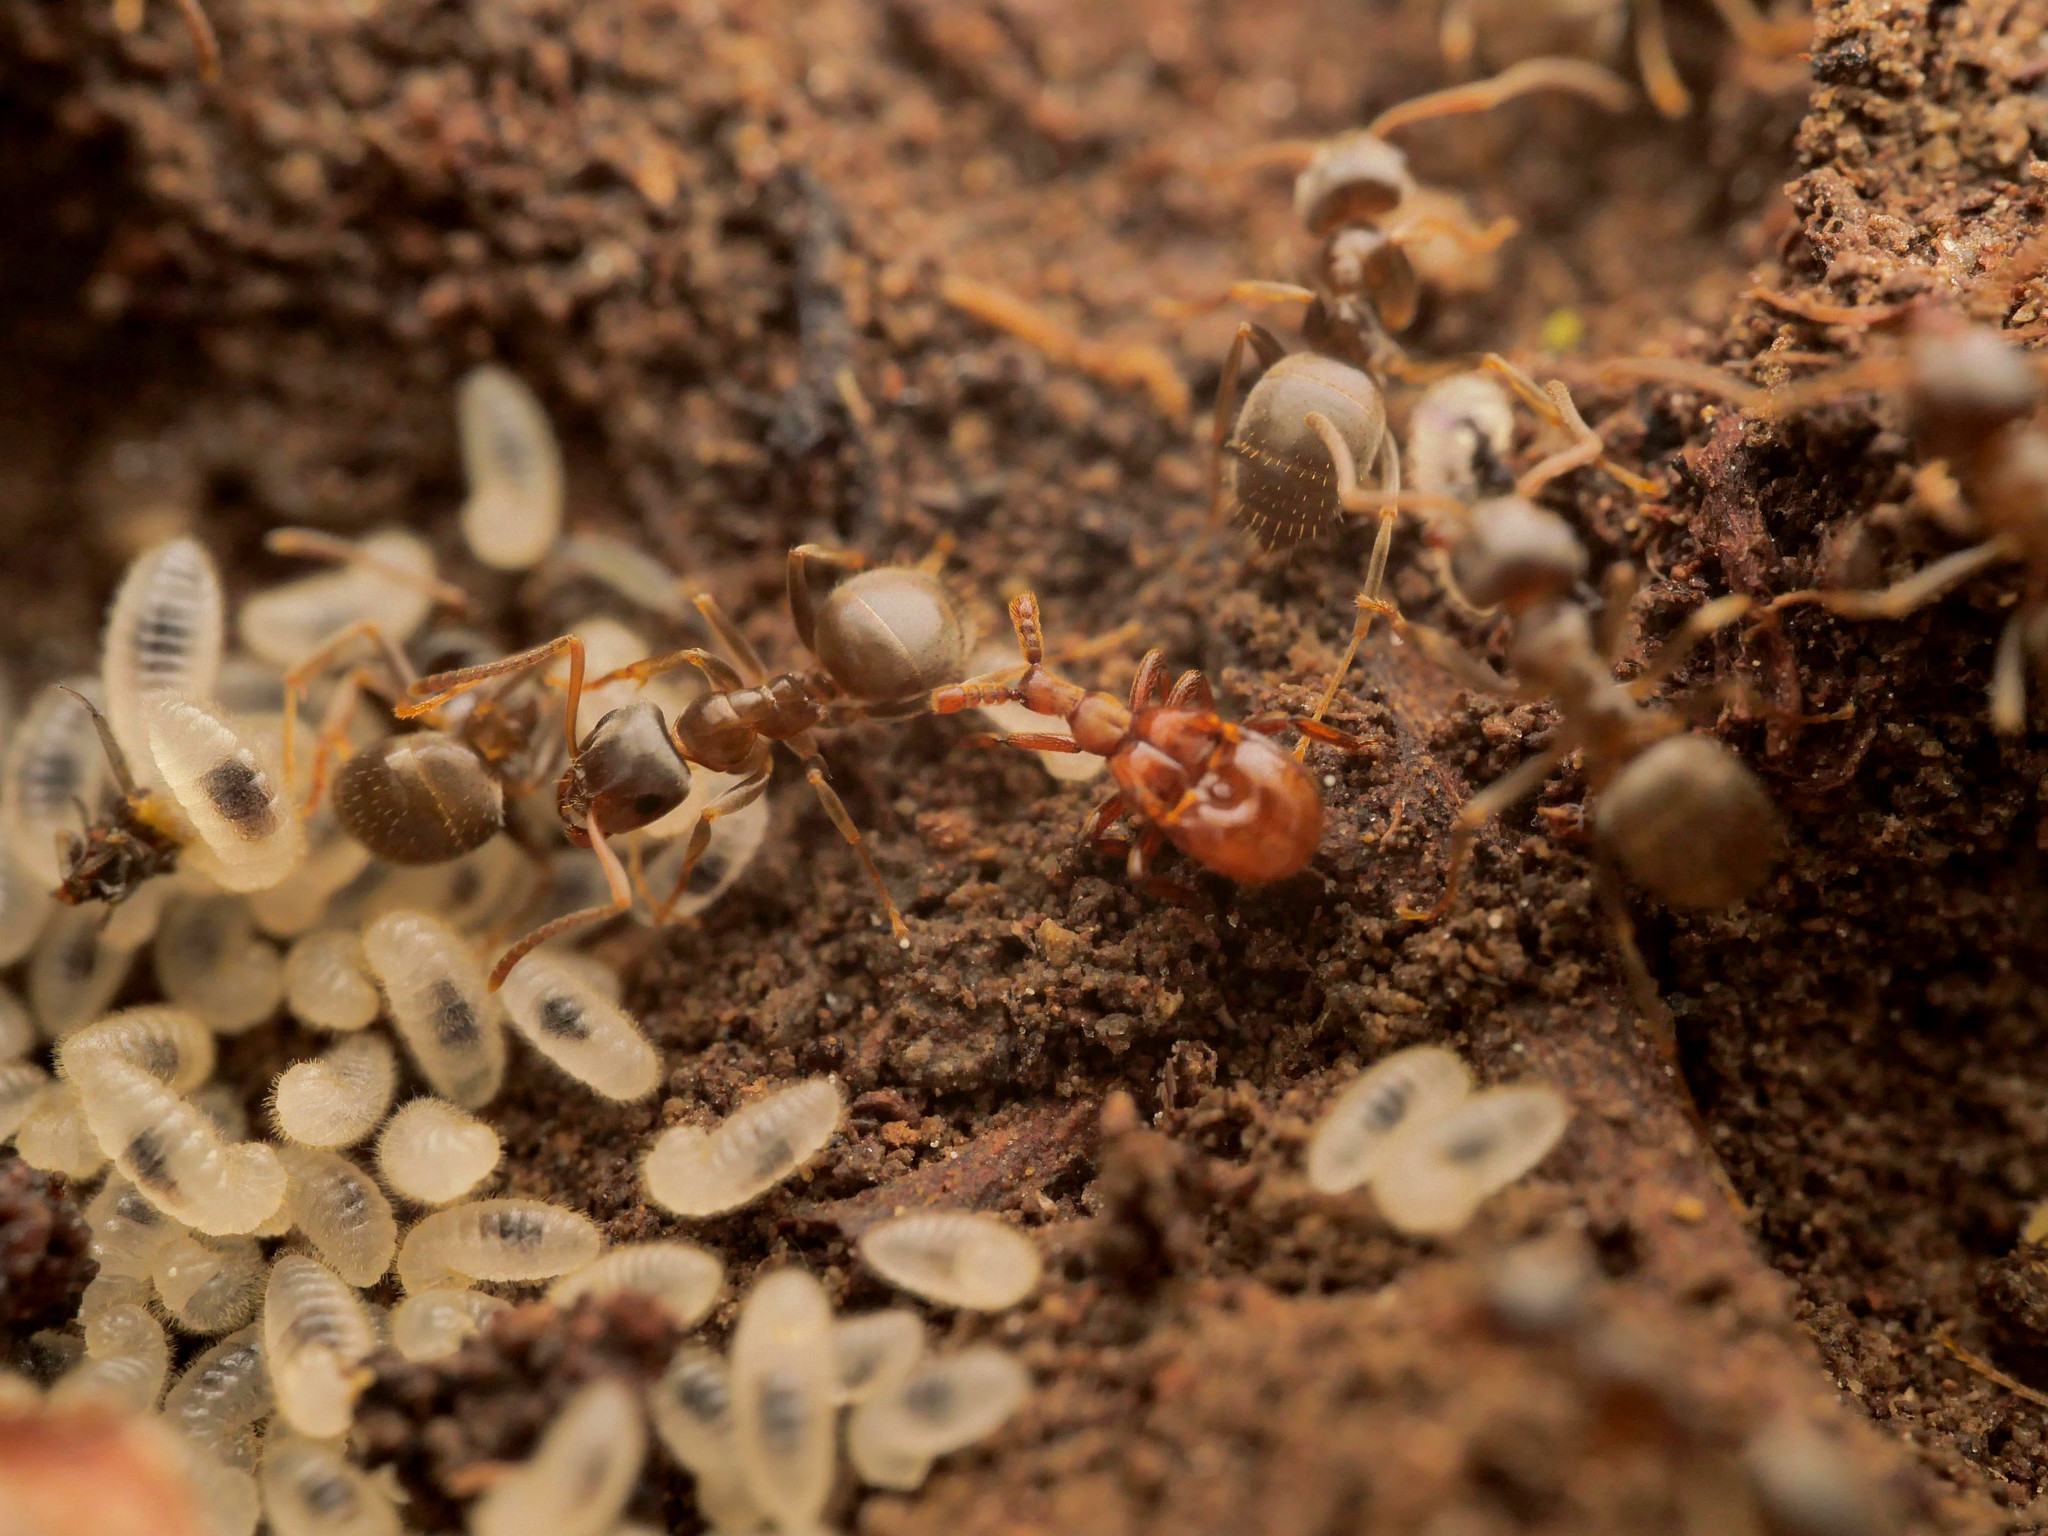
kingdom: Animalia
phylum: Arthropoda
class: Insecta
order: Coleoptera
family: Staphylinidae
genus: Claviger
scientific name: Claviger testaceus
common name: Yellow ants'-nest beetle
